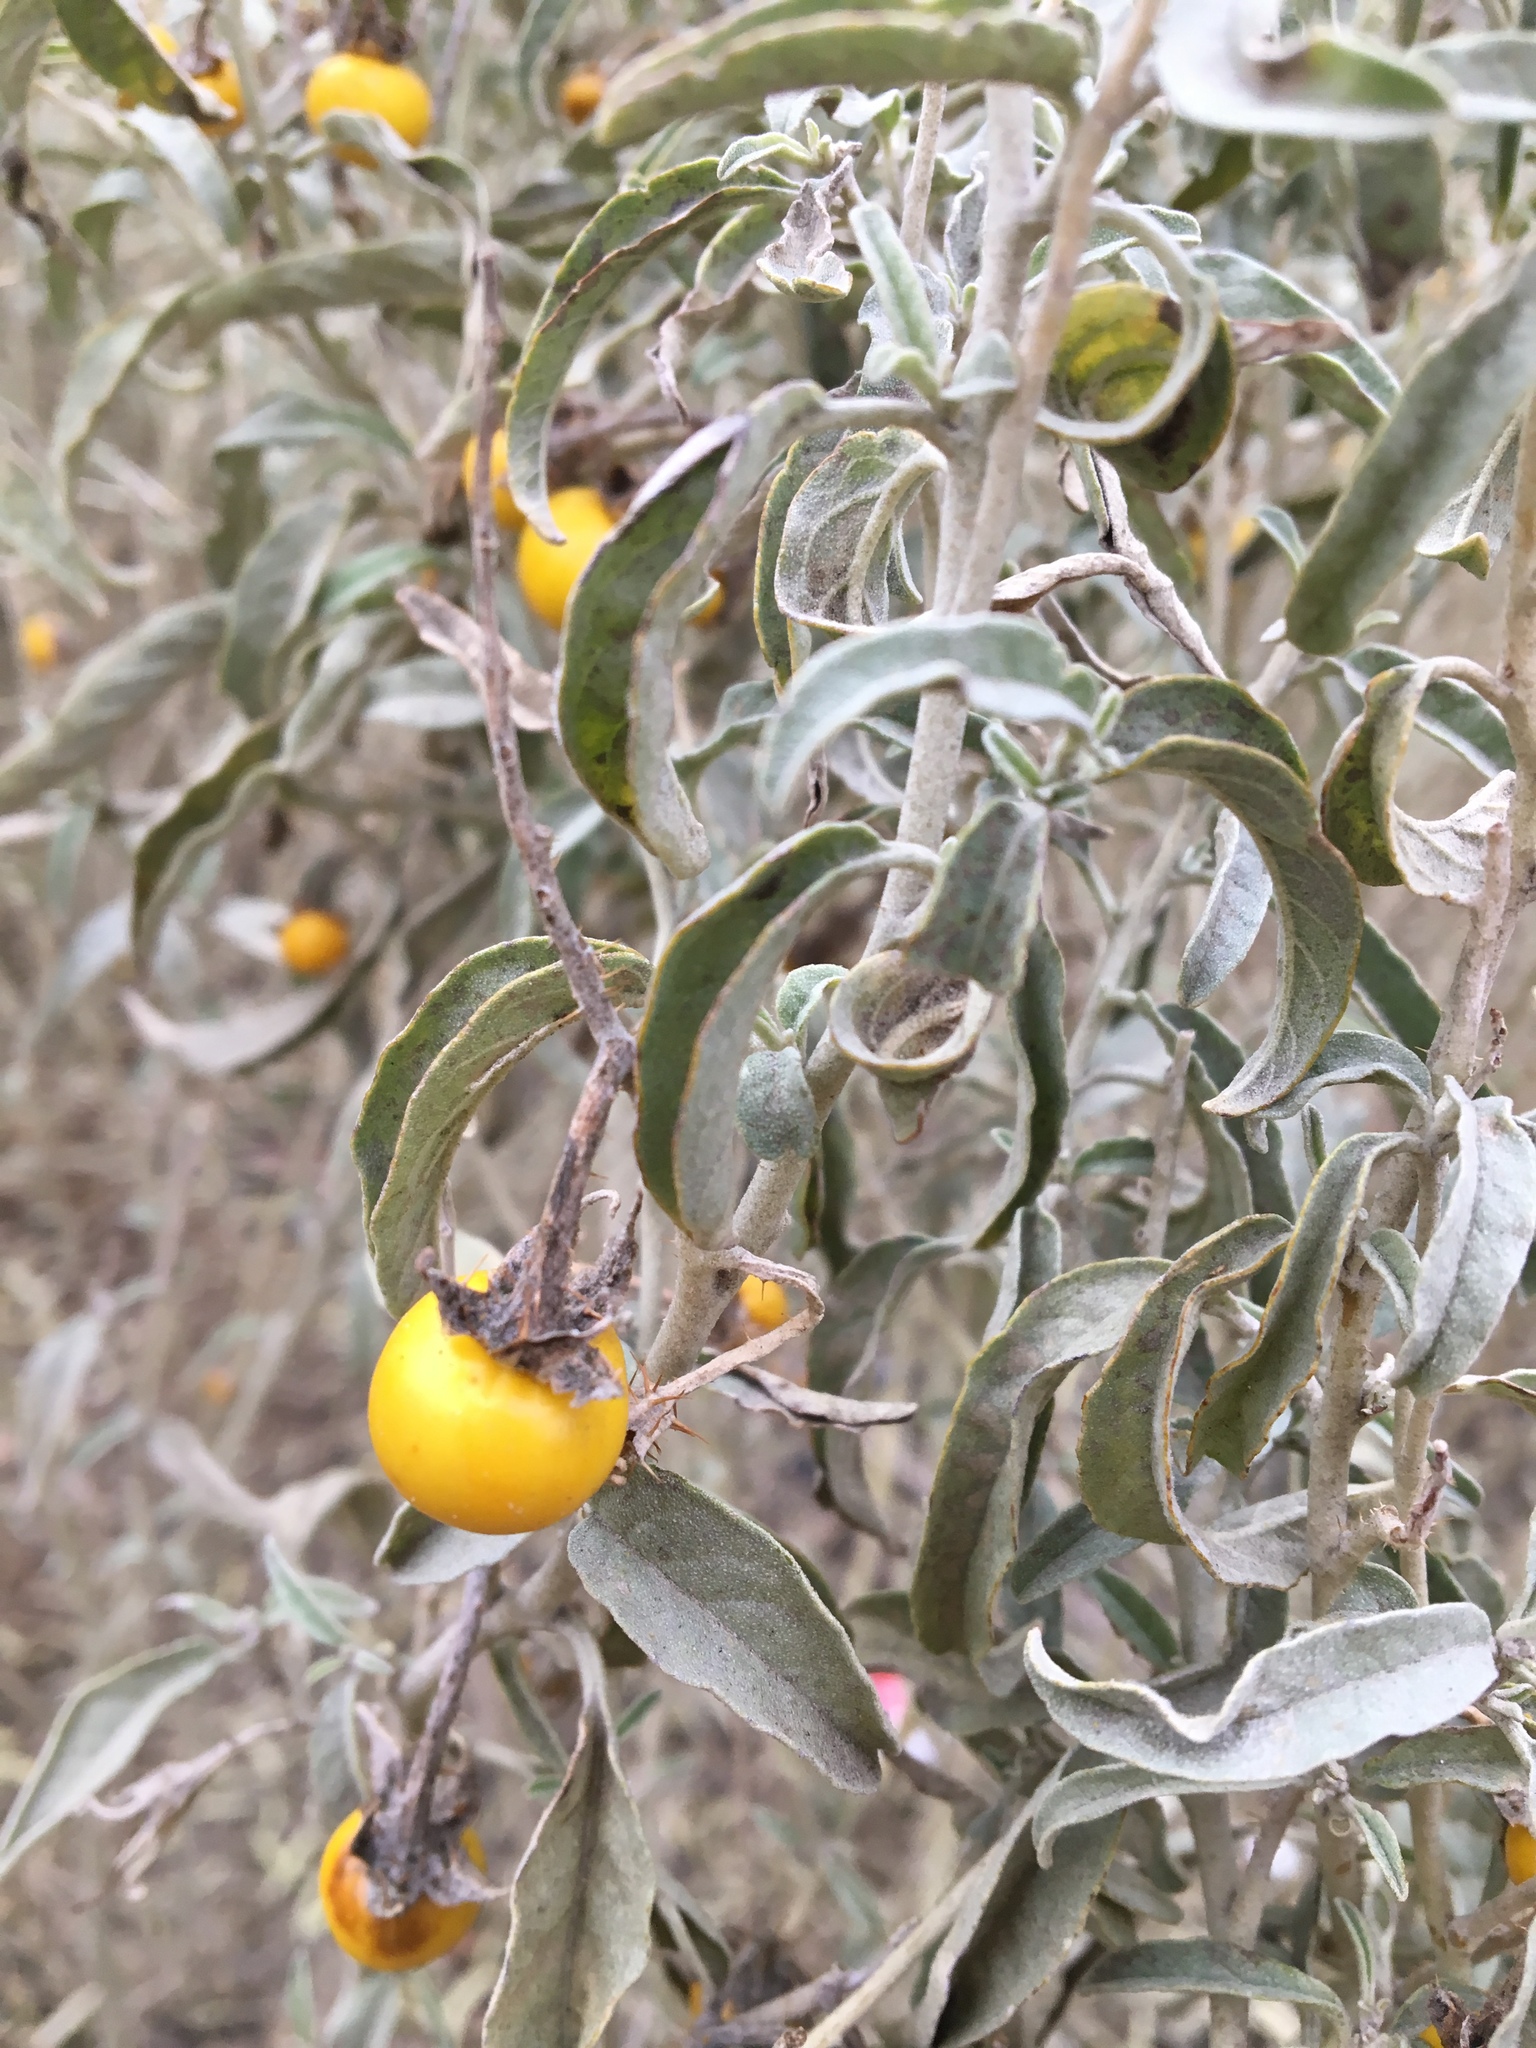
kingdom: Plantae
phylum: Tracheophyta
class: Magnoliopsida
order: Solanales
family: Solanaceae
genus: Solanum
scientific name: Solanum elaeagnifolium
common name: Silverleaf nightshade
